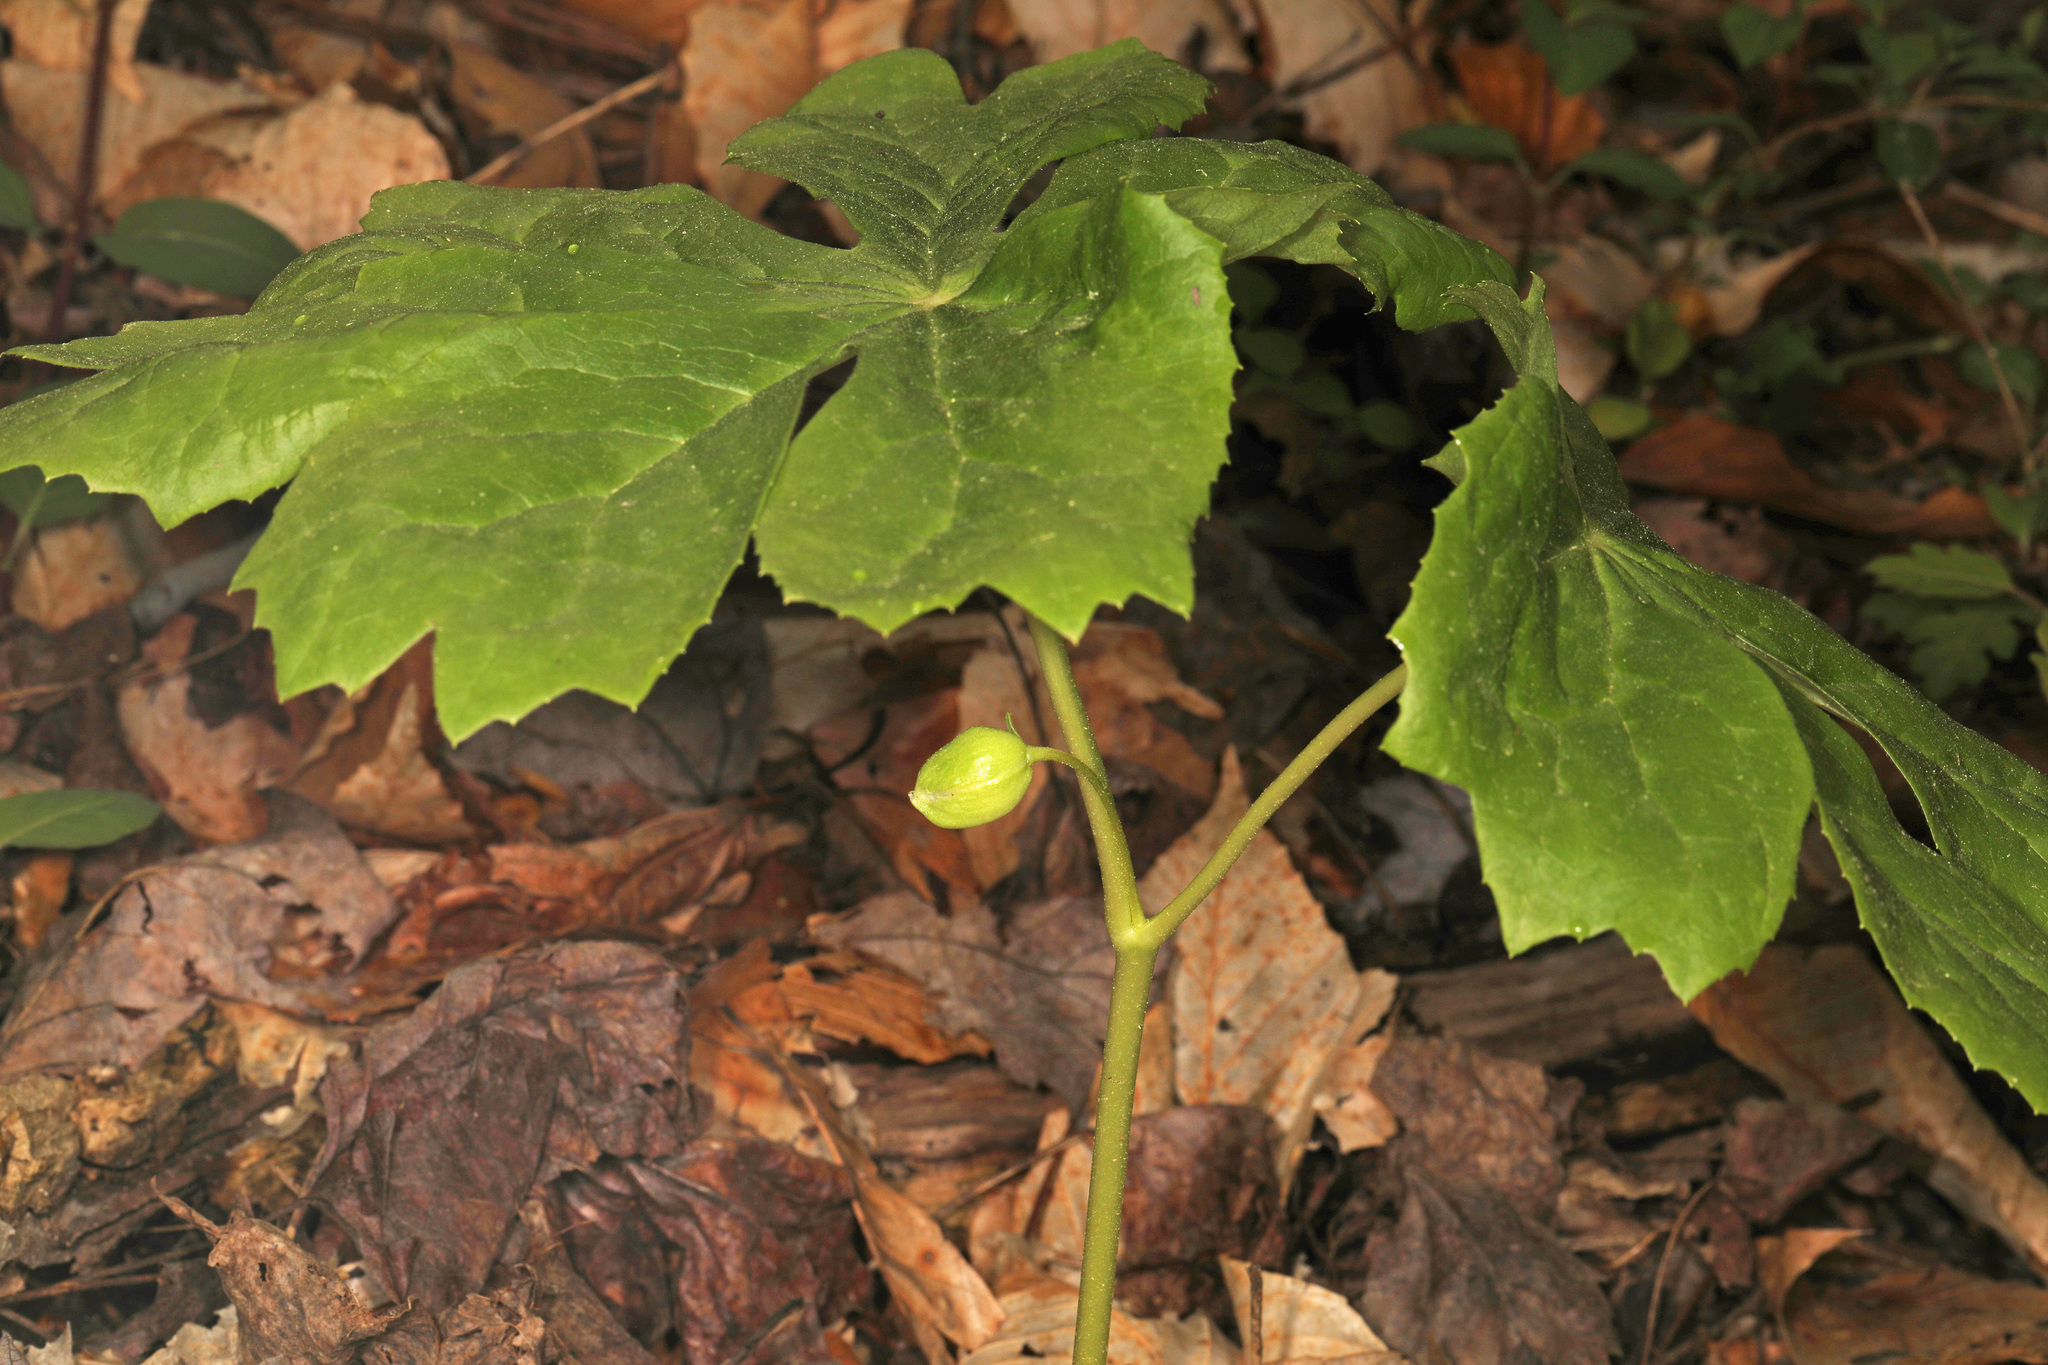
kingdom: Plantae
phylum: Tracheophyta
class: Magnoliopsida
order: Ranunculales
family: Berberidaceae
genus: Podophyllum
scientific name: Podophyllum peltatum
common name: Wild mandrake
